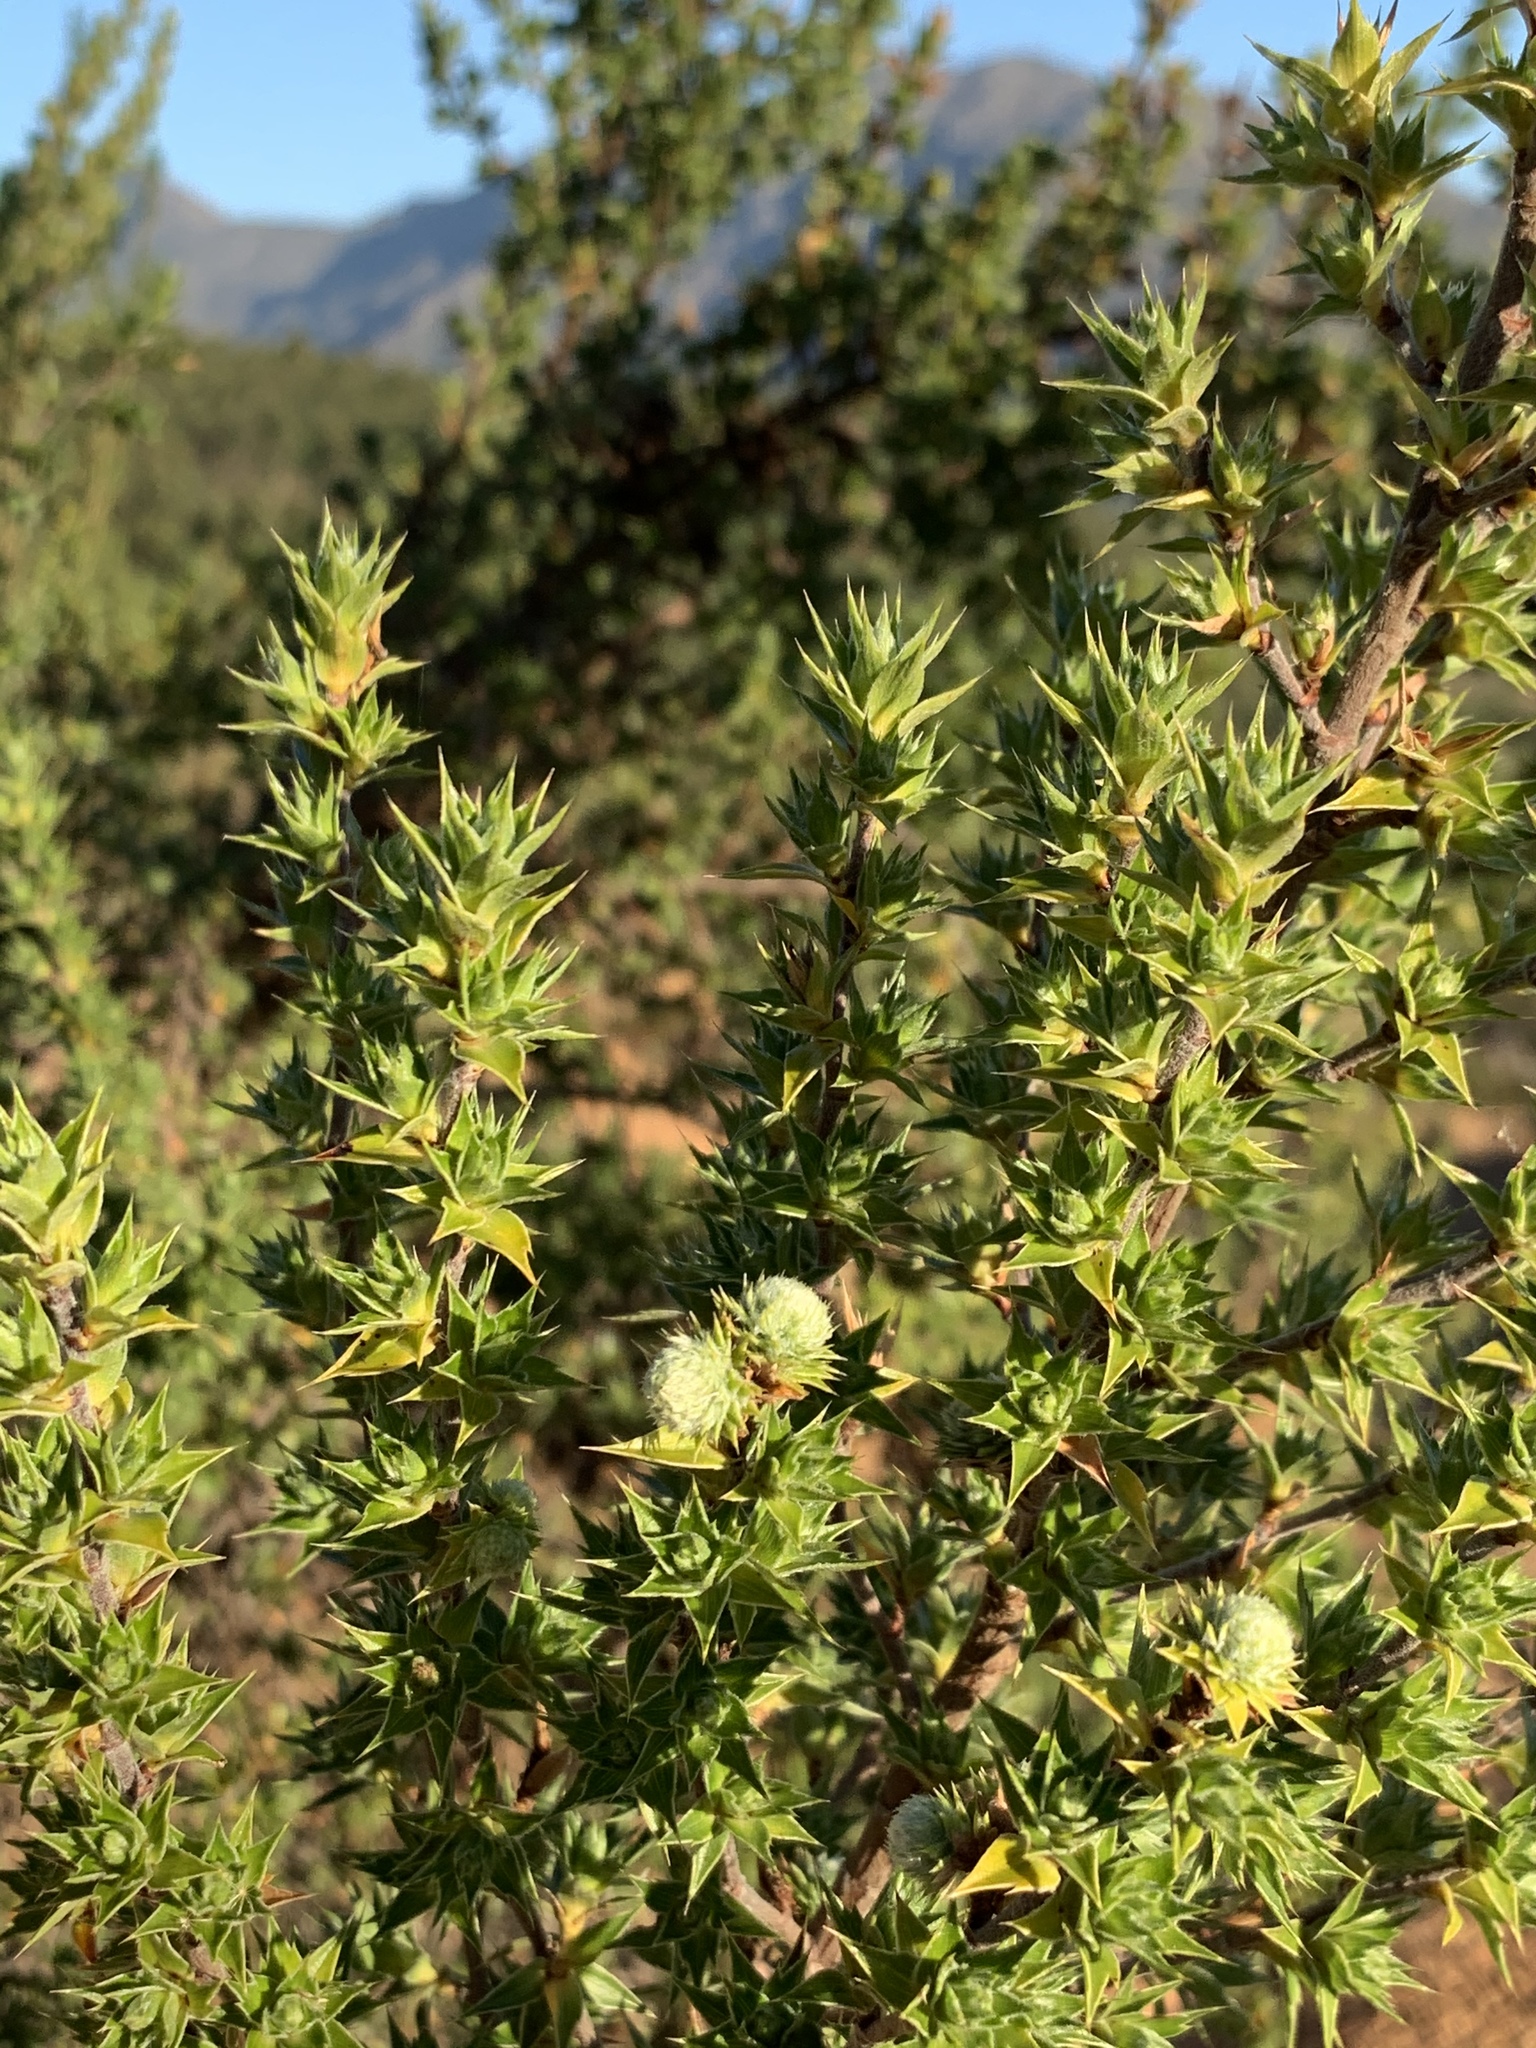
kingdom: Plantae
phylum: Tracheophyta
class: Magnoliopsida
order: Rosales
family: Rosaceae
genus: Cliffortia
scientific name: Cliffortia ruscifolia
